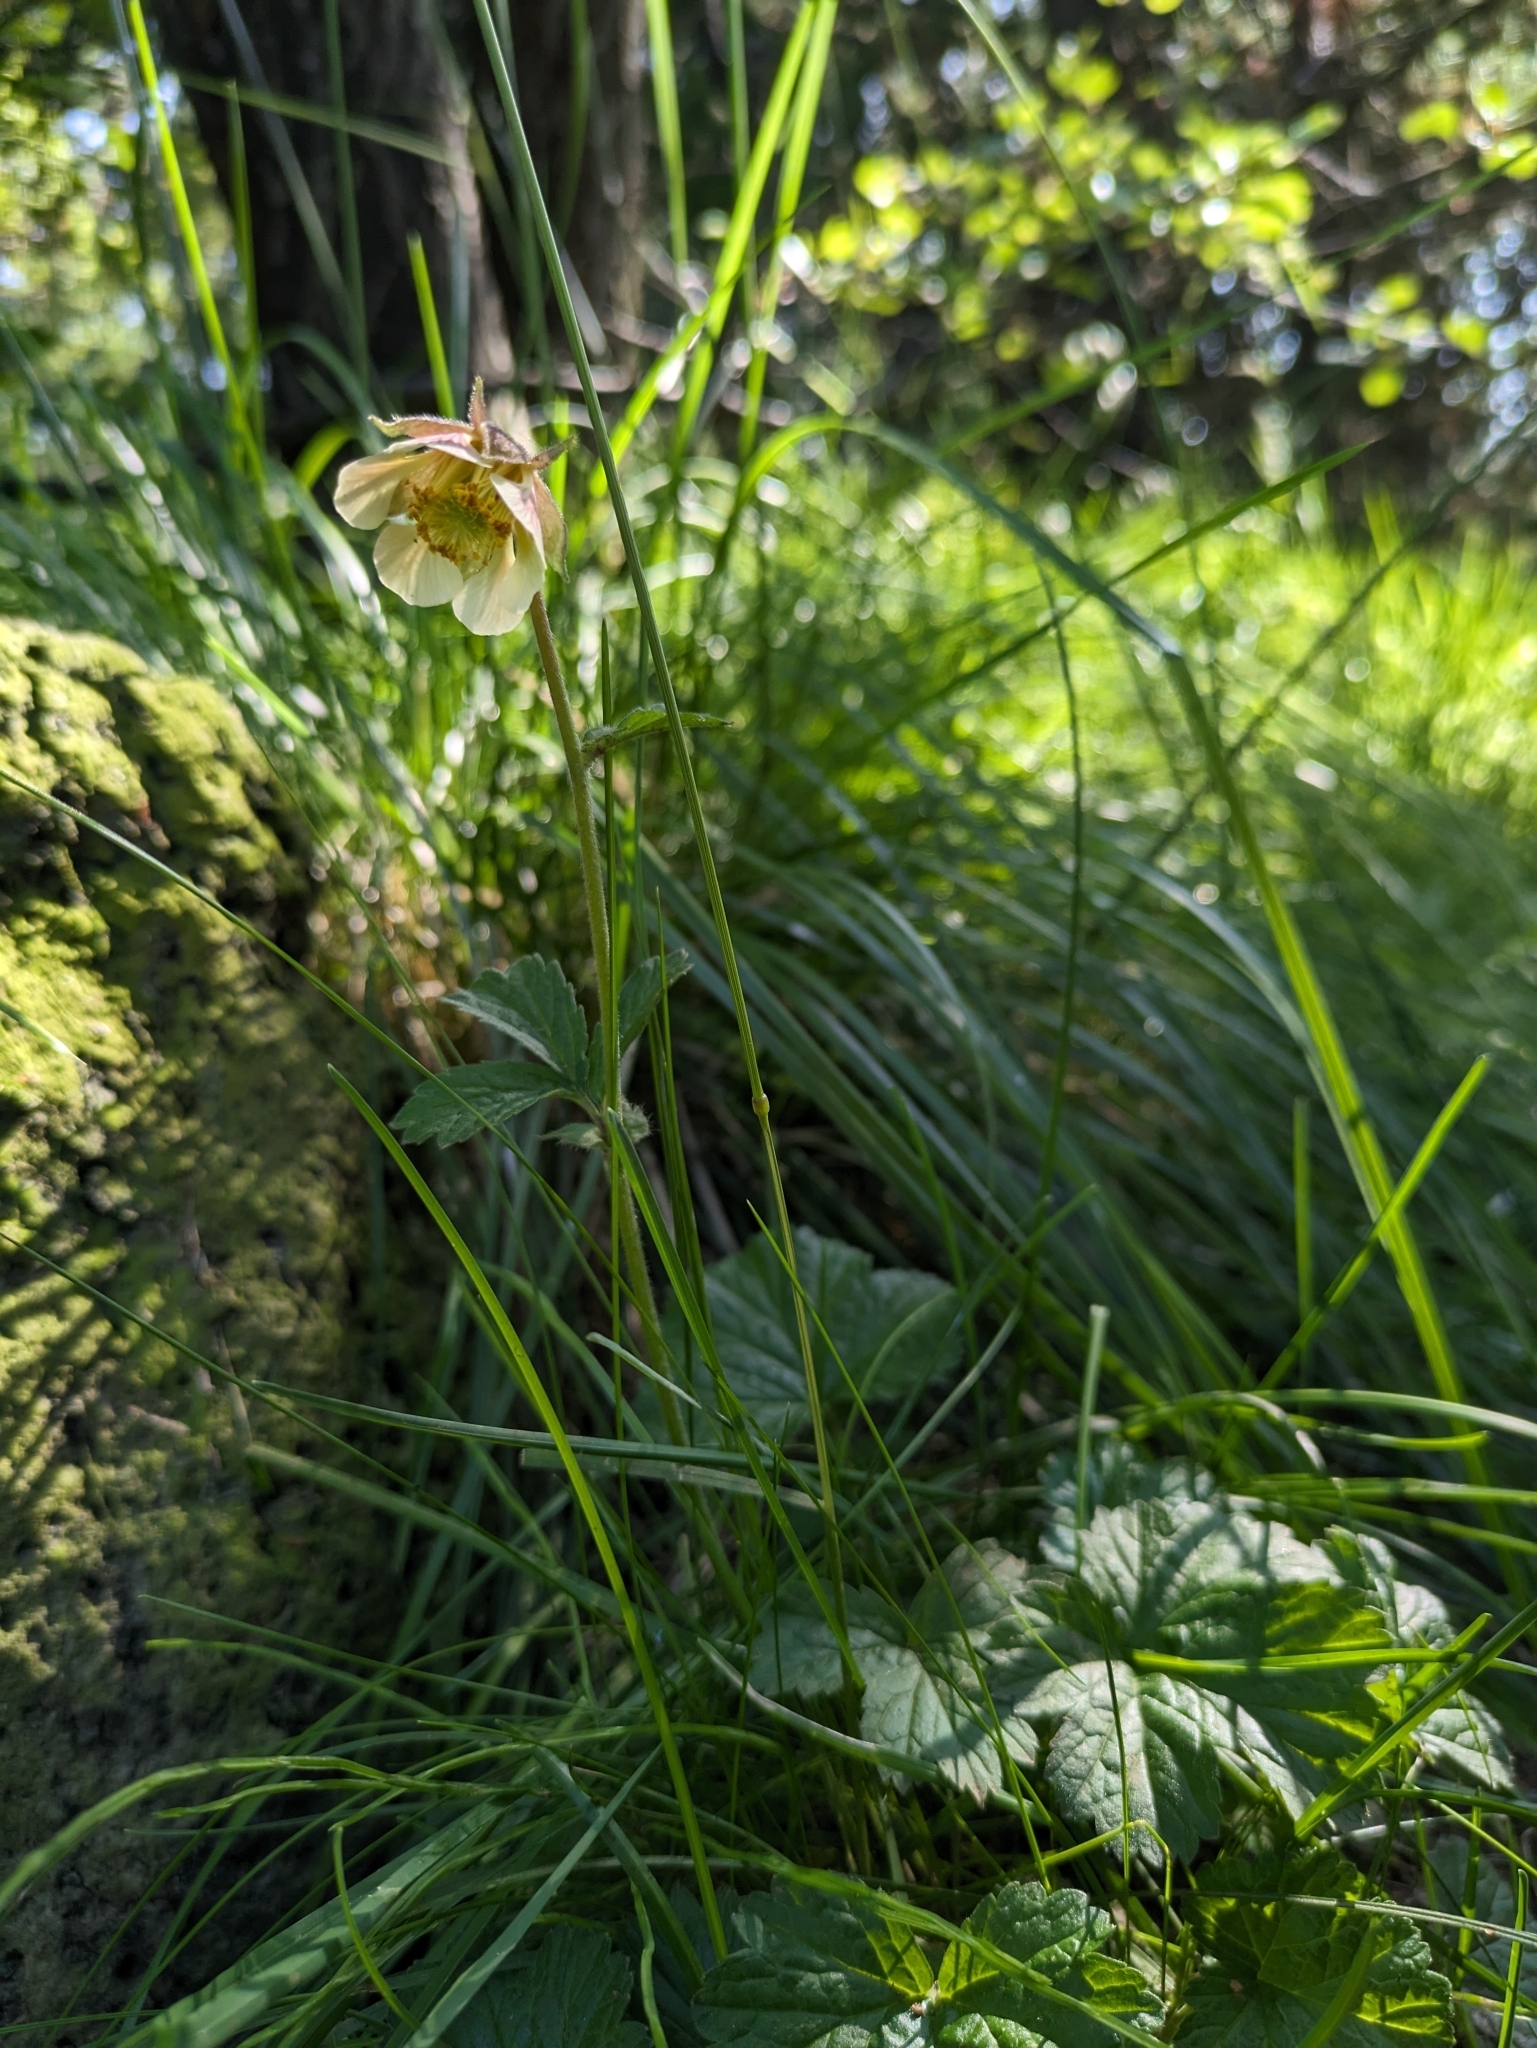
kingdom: Plantae
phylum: Tracheophyta
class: Magnoliopsida
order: Rosales
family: Rosaceae
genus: Geum
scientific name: Geum rivale
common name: Water avens
